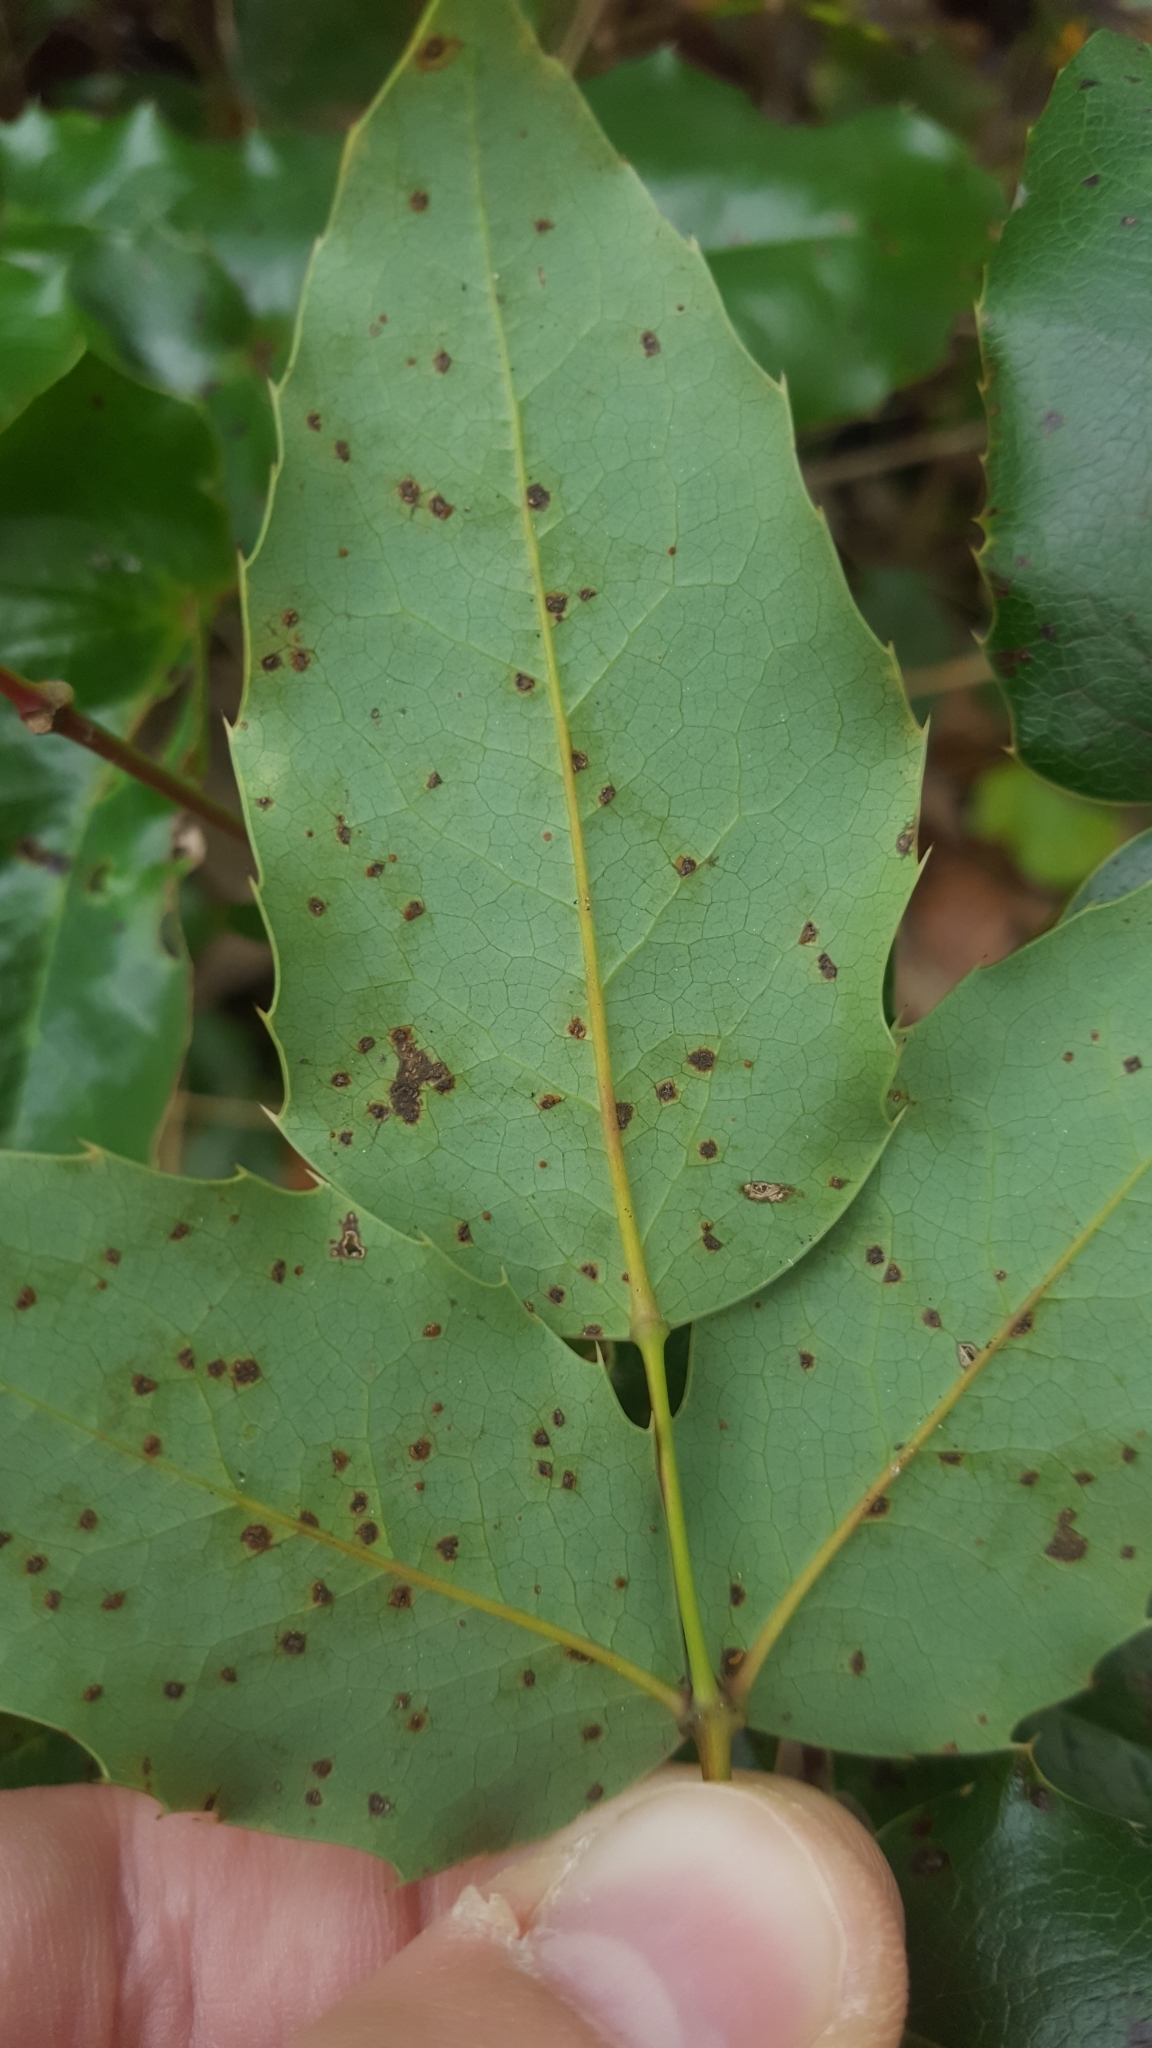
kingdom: Fungi
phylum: Basidiomycota
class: Pucciniomycetes
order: Pucciniales
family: Pucciniaceae
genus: Cumminsiella
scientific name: Cumminsiella mirabilissima
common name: Mahonia rust
